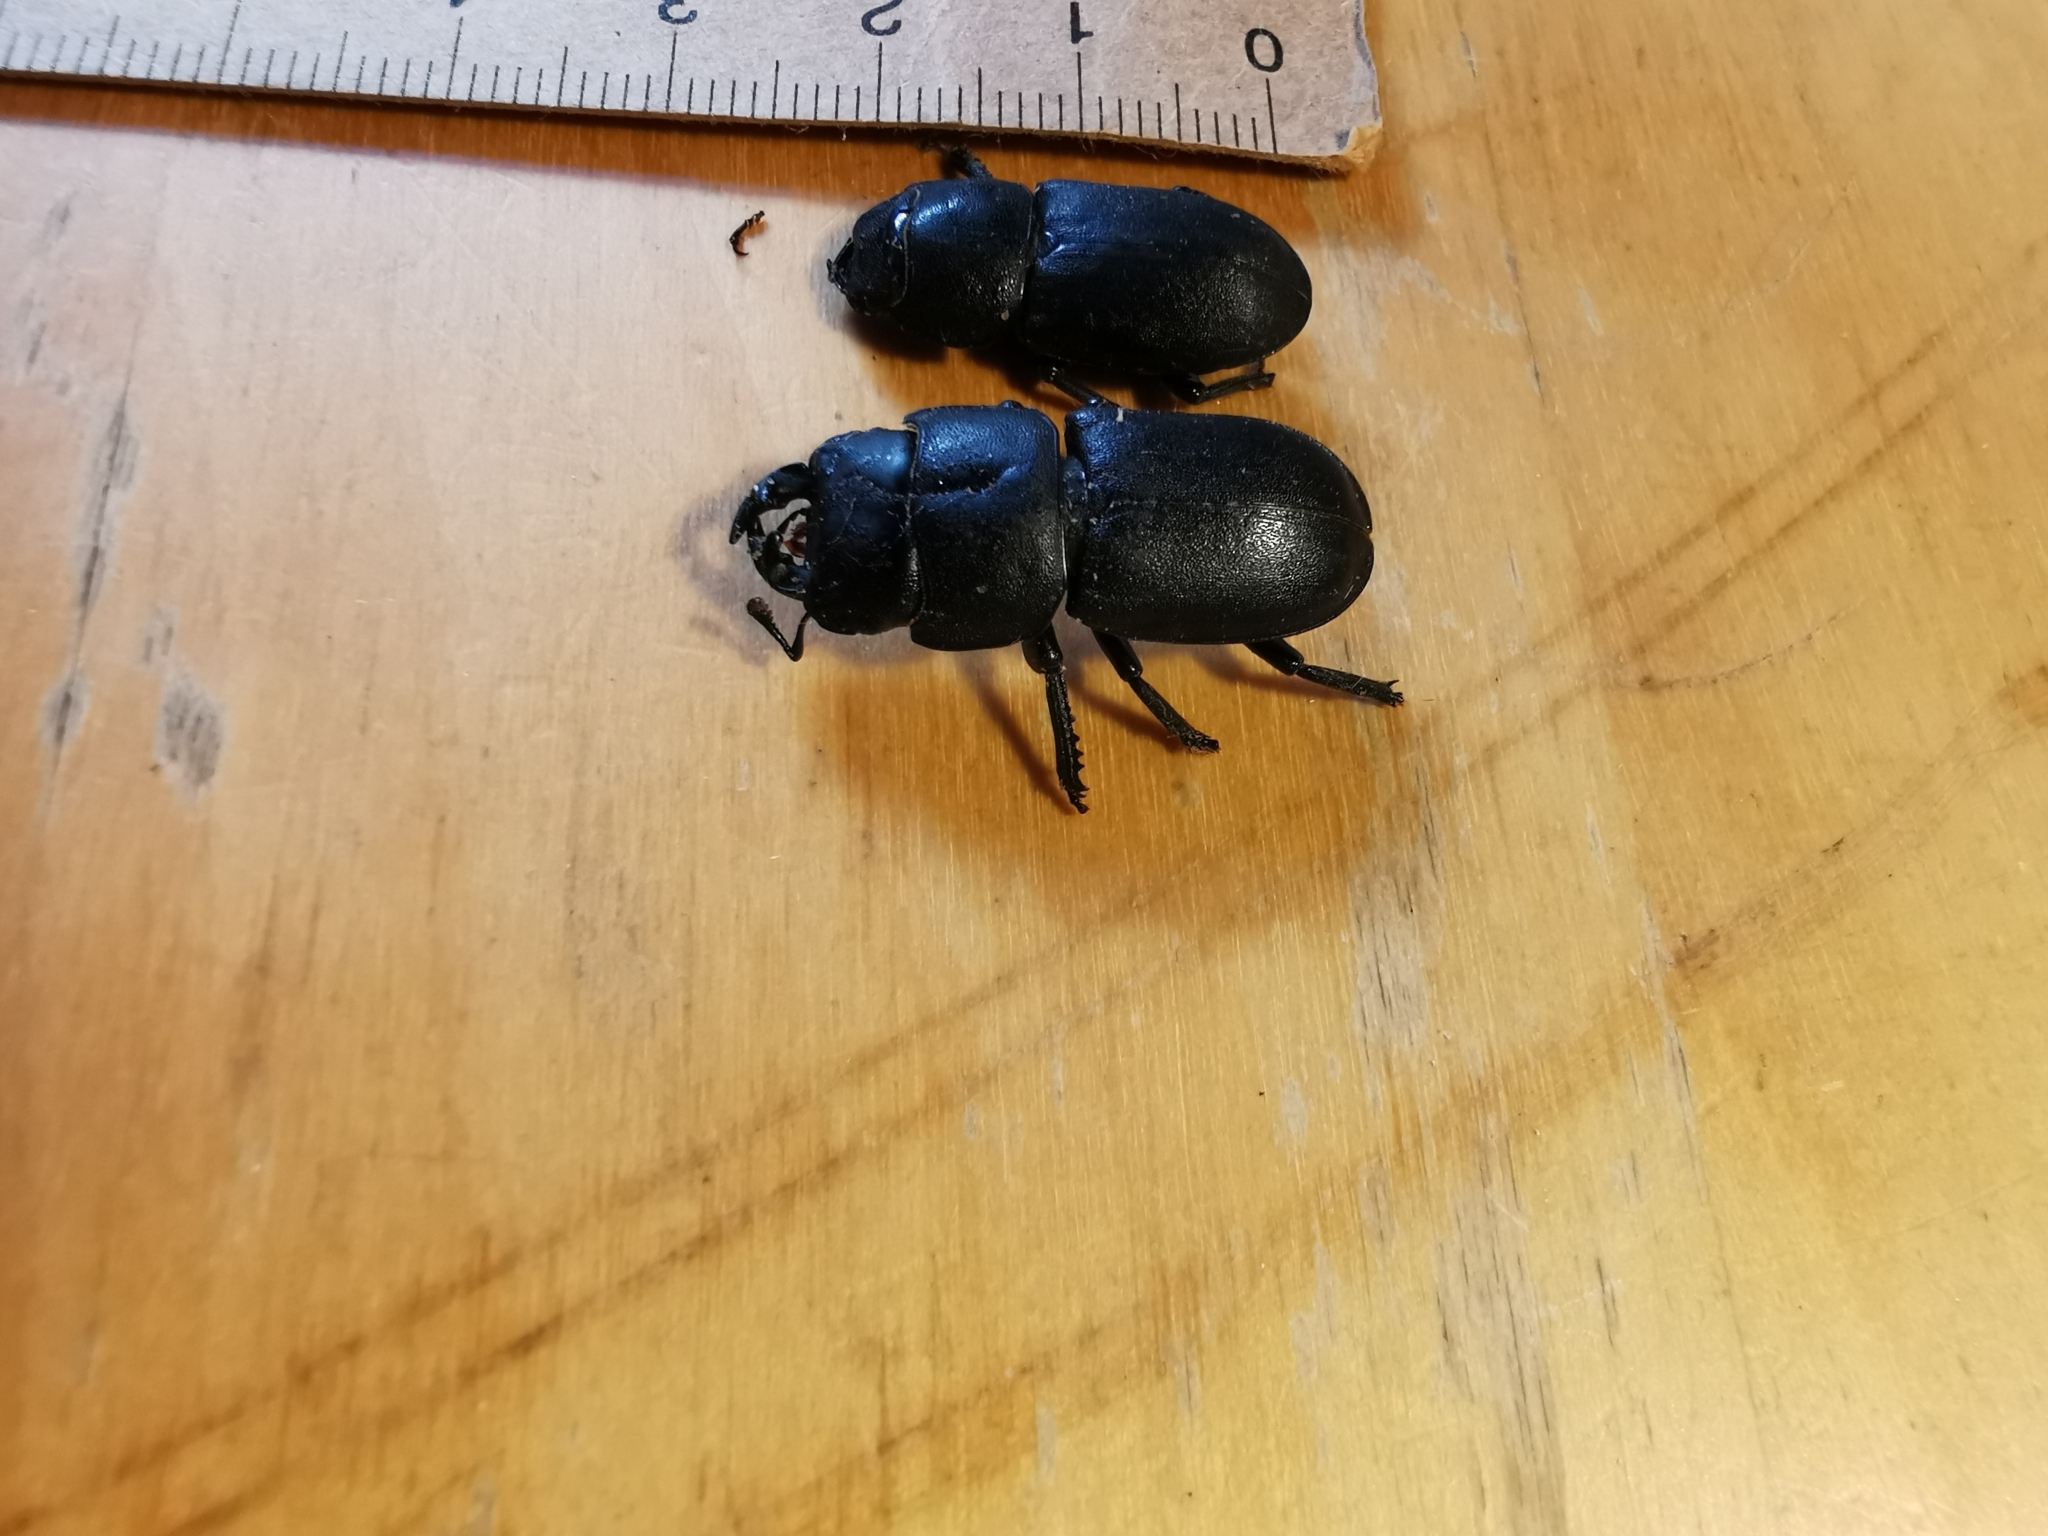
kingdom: Animalia
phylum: Arthropoda
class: Insecta
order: Coleoptera
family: Lucanidae
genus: Dorcus
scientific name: Dorcus parallelipipedus
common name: Lesser stag beetle
